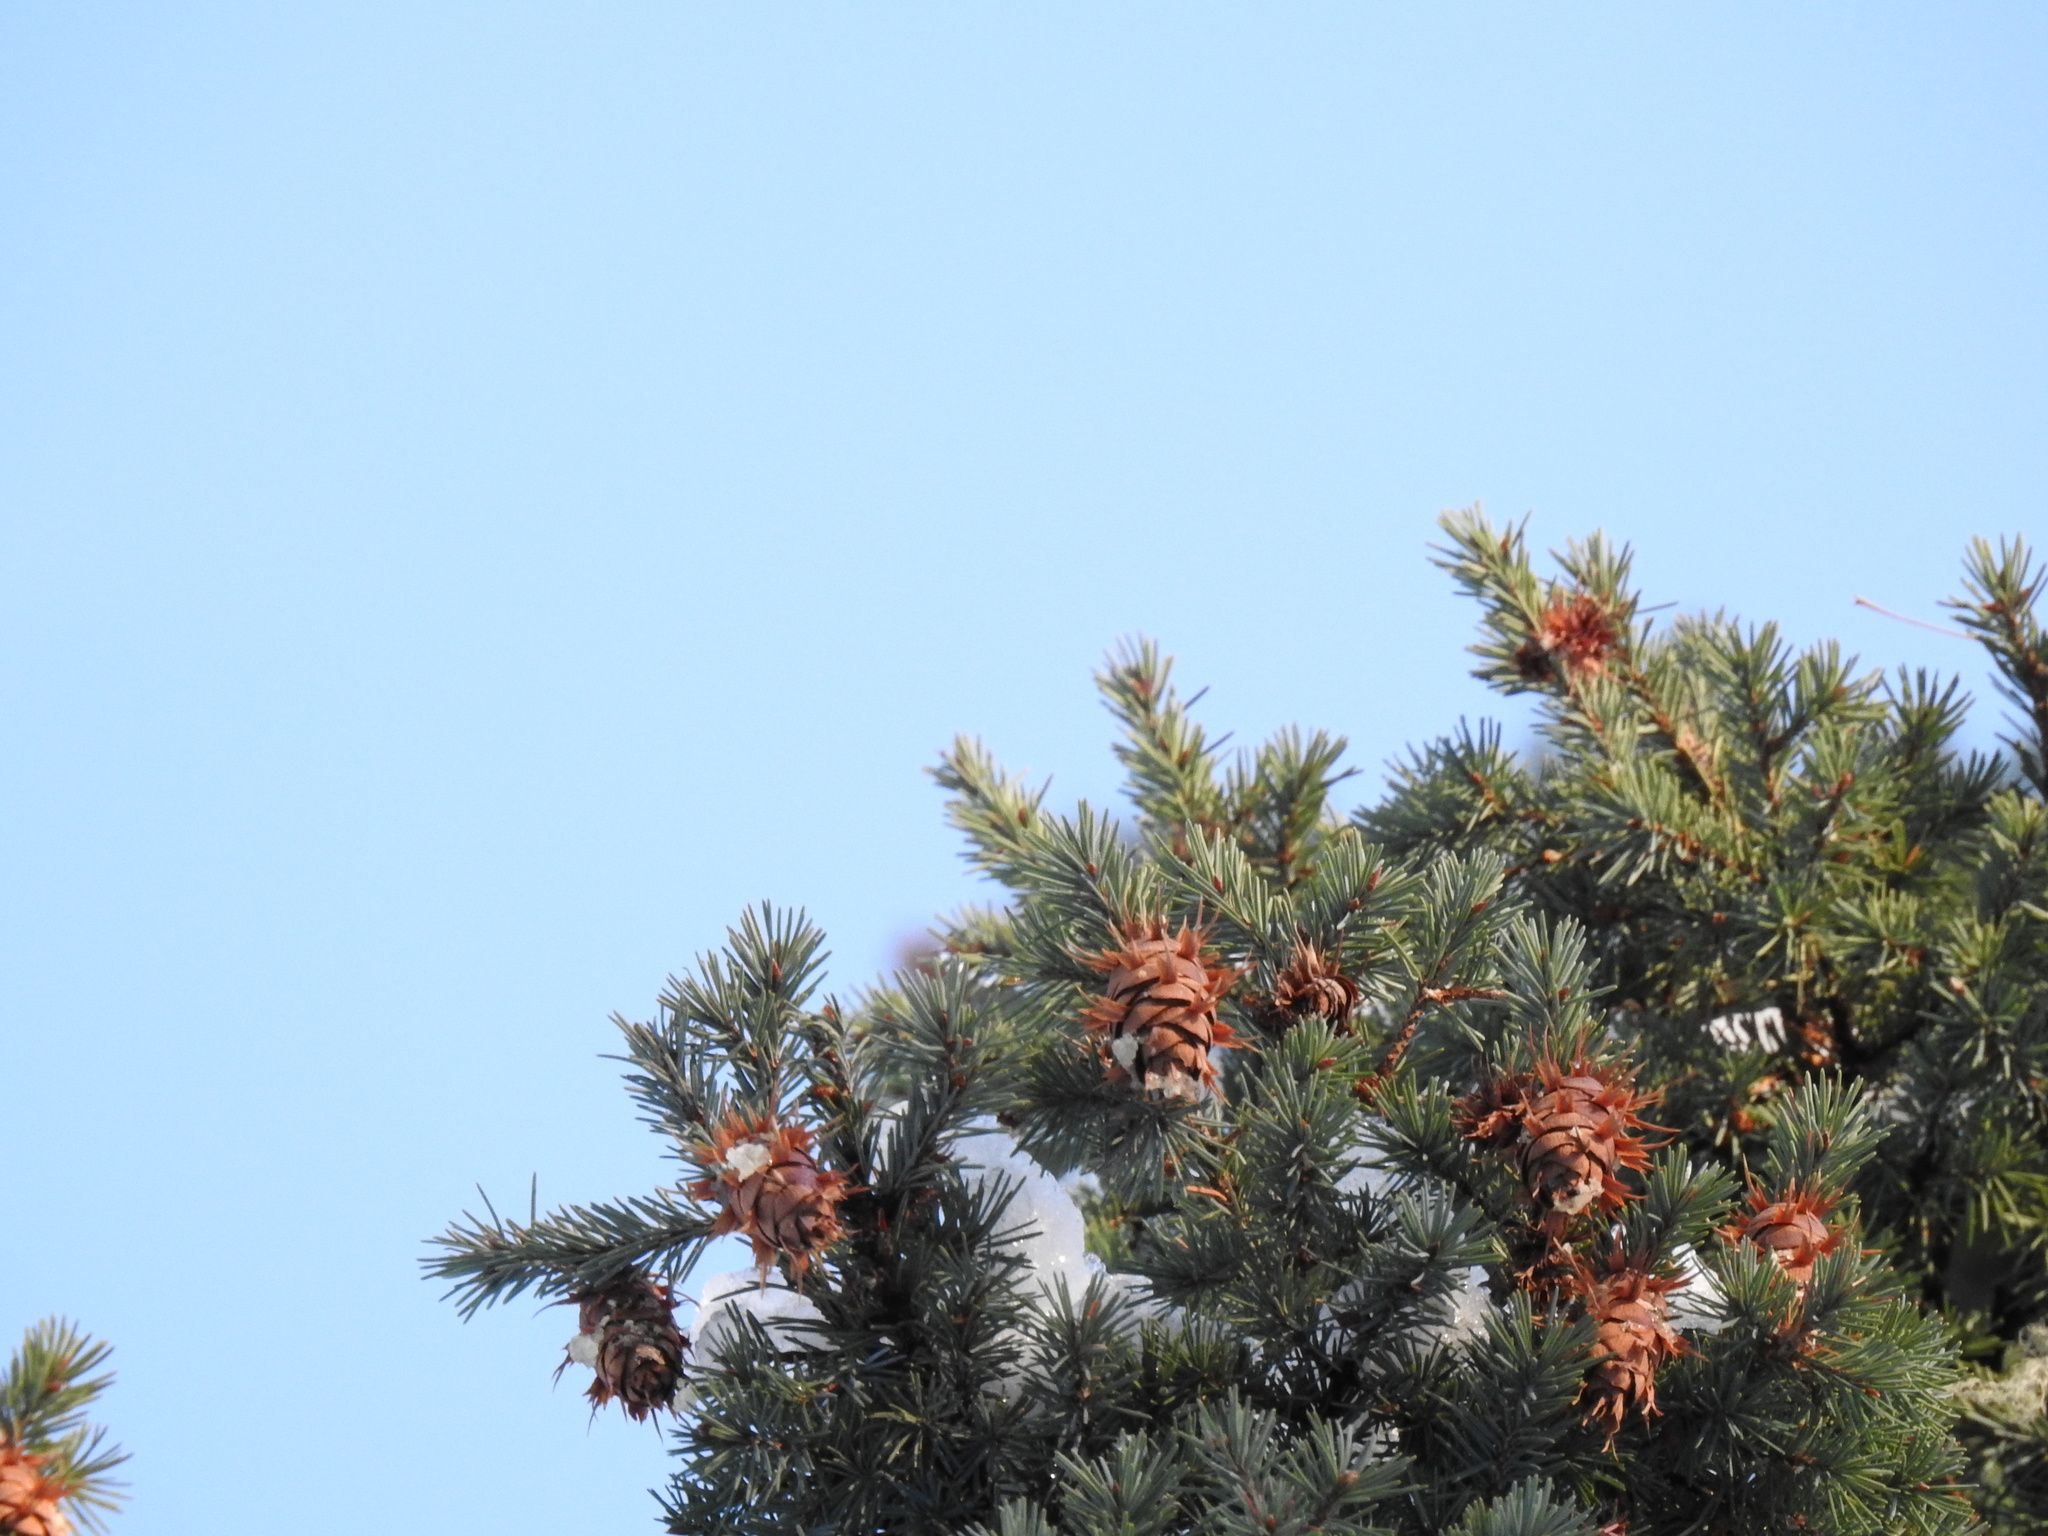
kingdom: Plantae
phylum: Tracheophyta
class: Pinopsida
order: Pinales
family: Pinaceae
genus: Pseudotsuga
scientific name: Pseudotsuga menziesii
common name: Douglas fir
